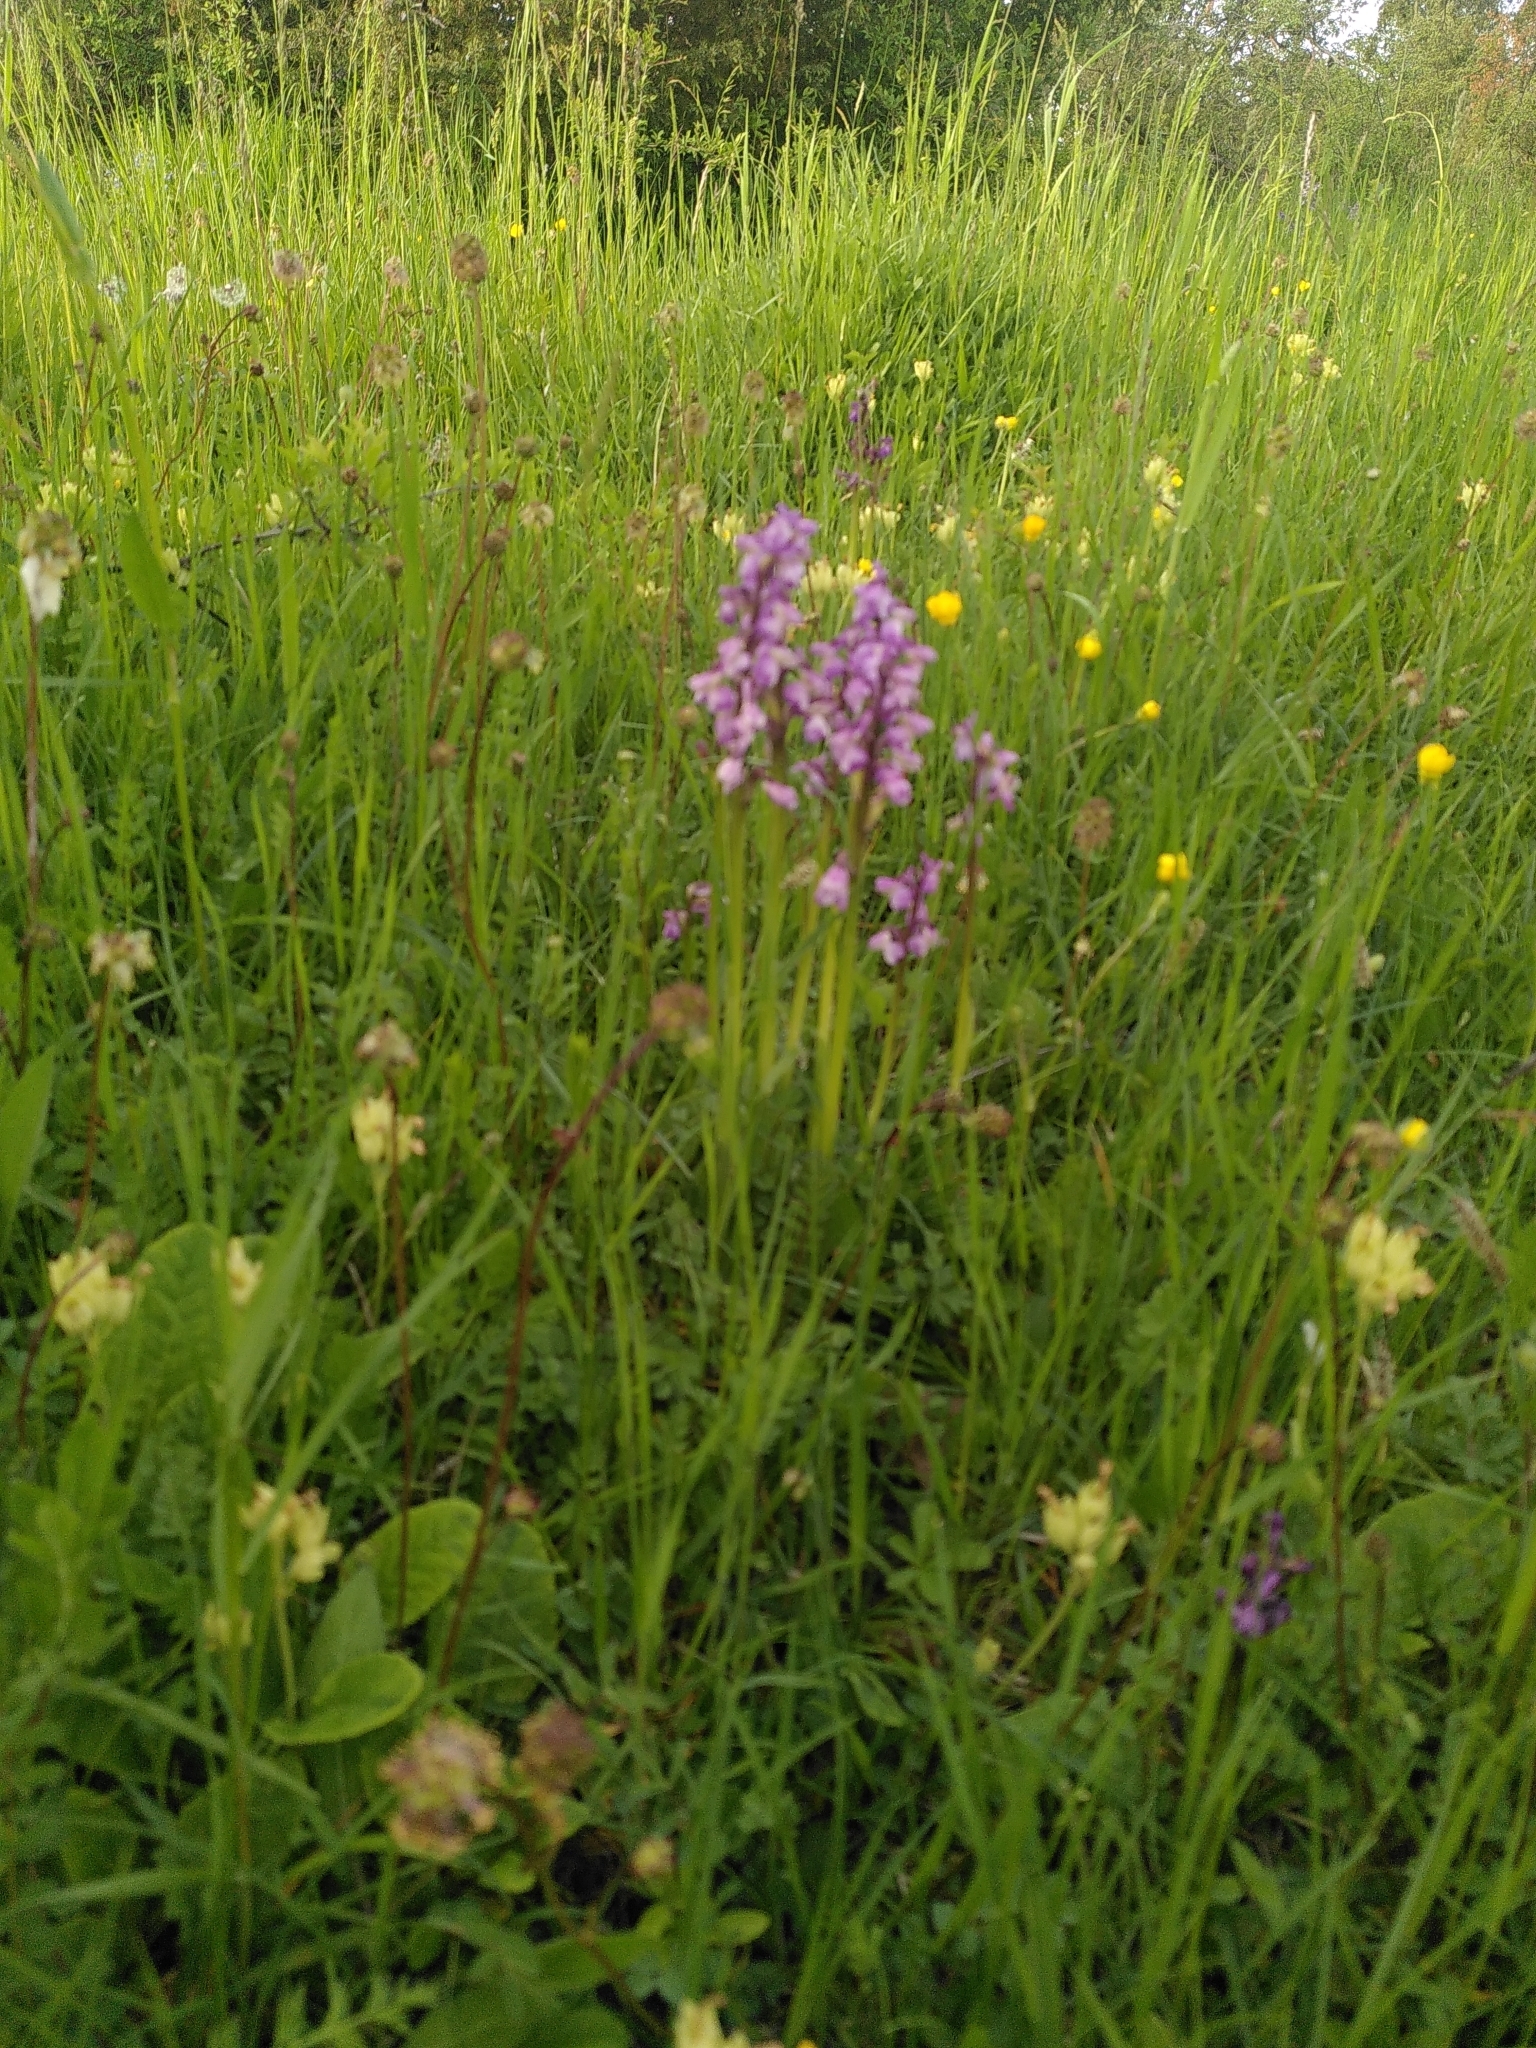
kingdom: Plantae
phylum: Tracheophyta
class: Liliopsida
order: Asparagales
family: Orchidaceae
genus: Anacamptis
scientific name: Anacamptis morio
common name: Green-winged orchid
